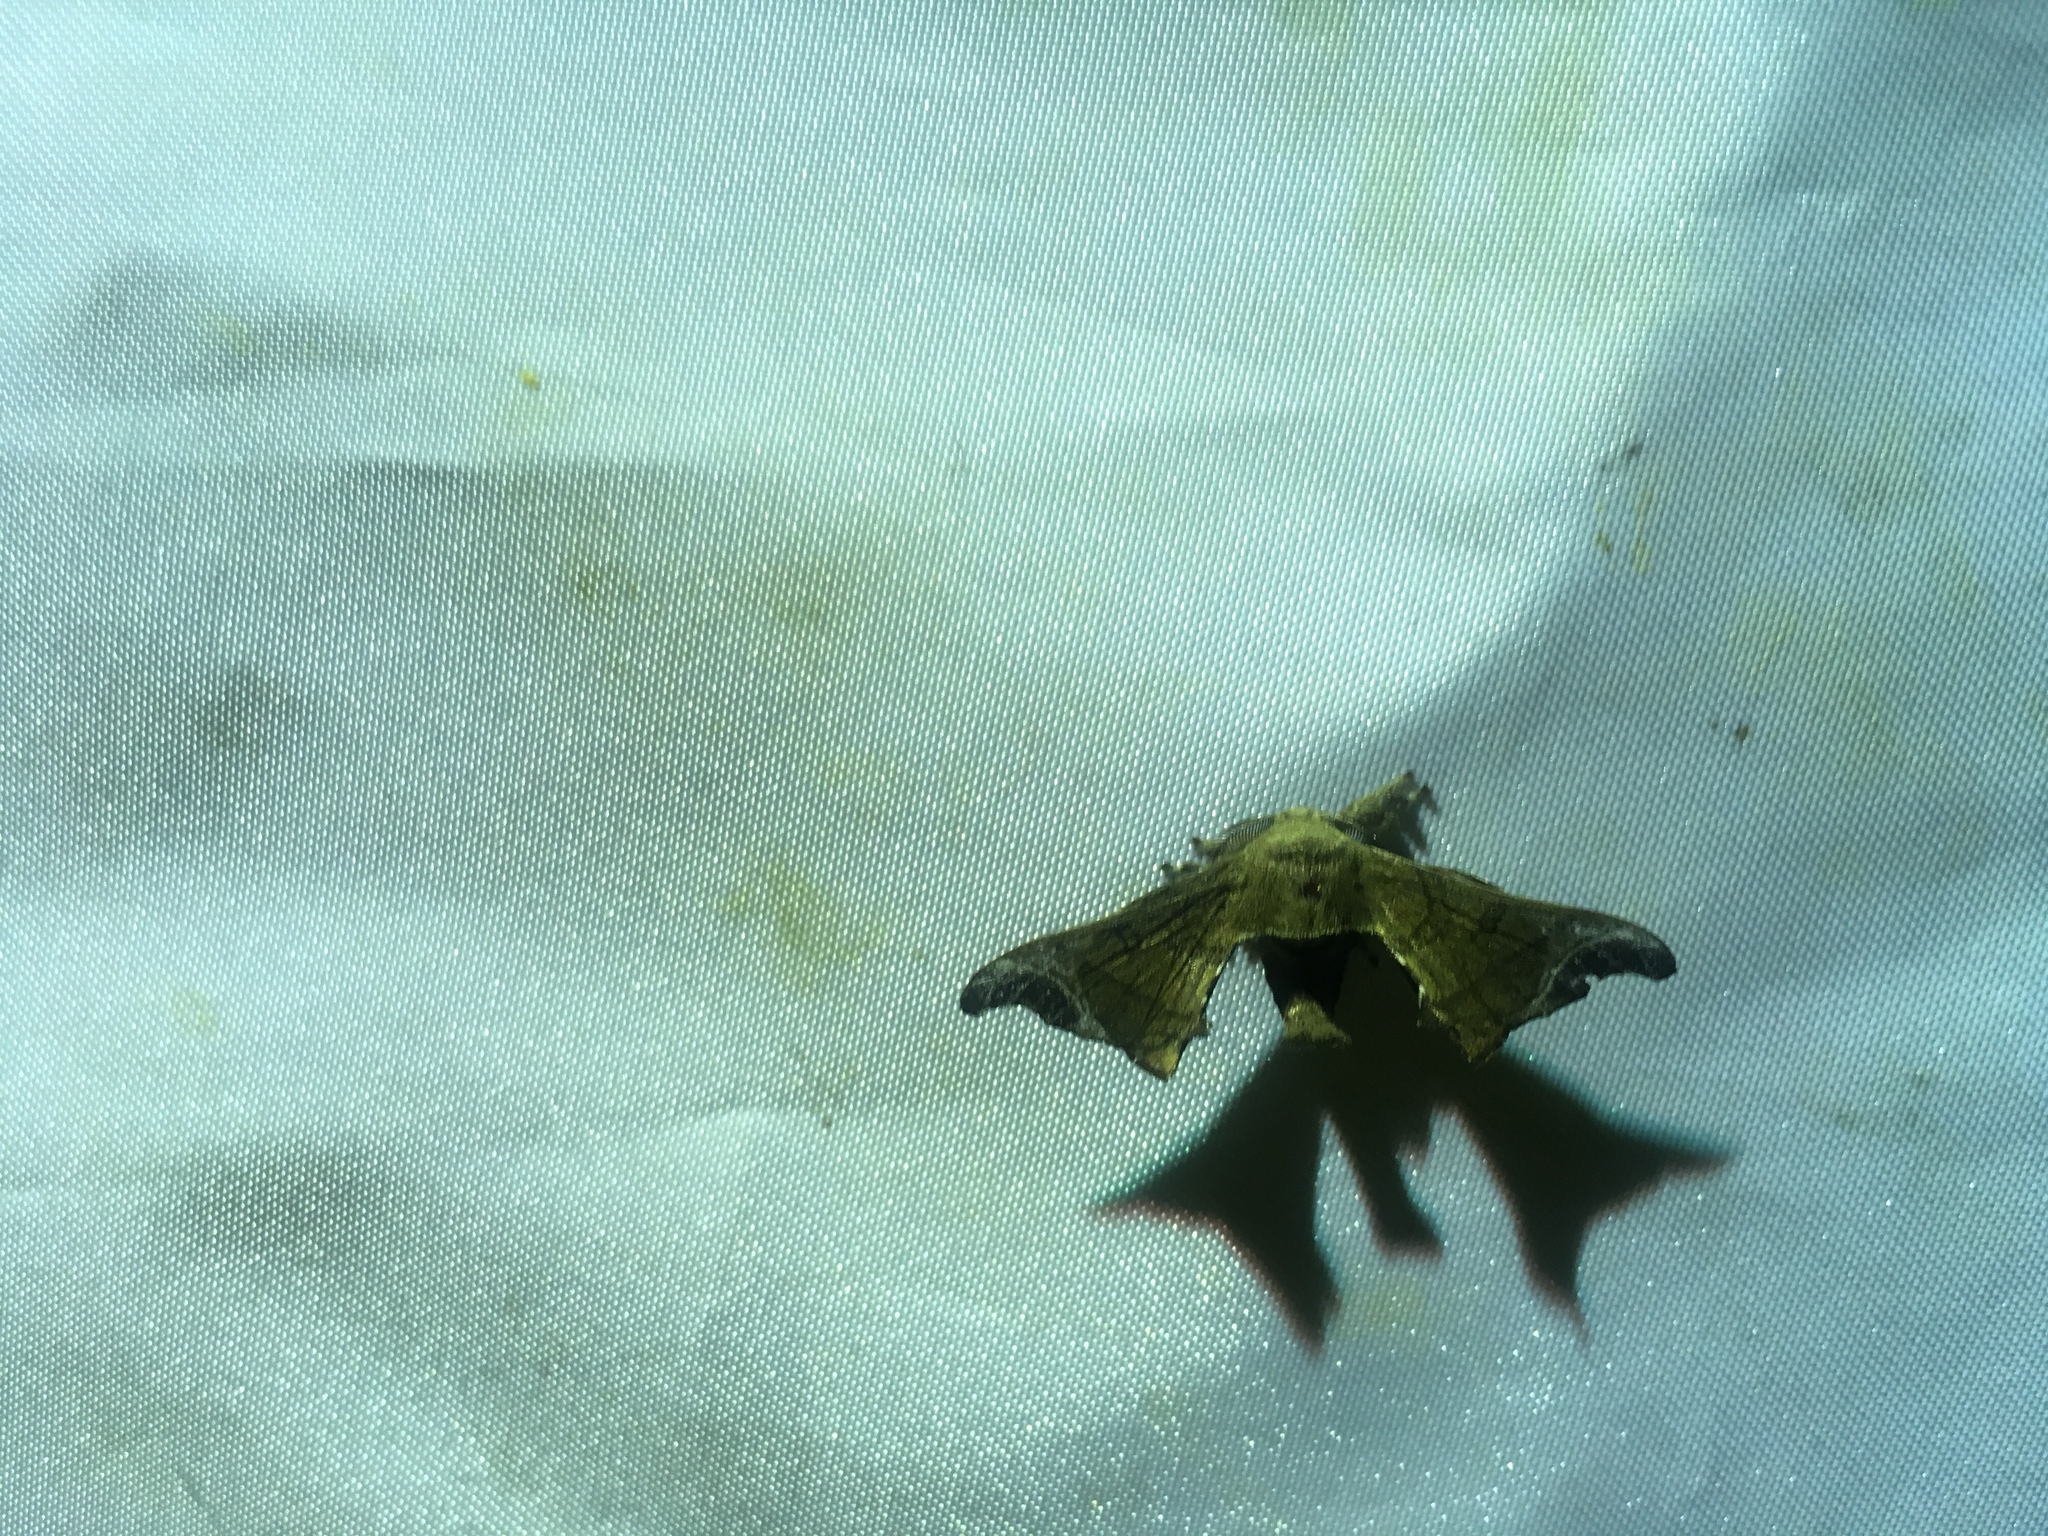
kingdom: Animalia
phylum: Arthropoda
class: Insecta
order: Lepidoptera
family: Bombycidae
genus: Bombyx
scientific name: Bombyx mandarina
